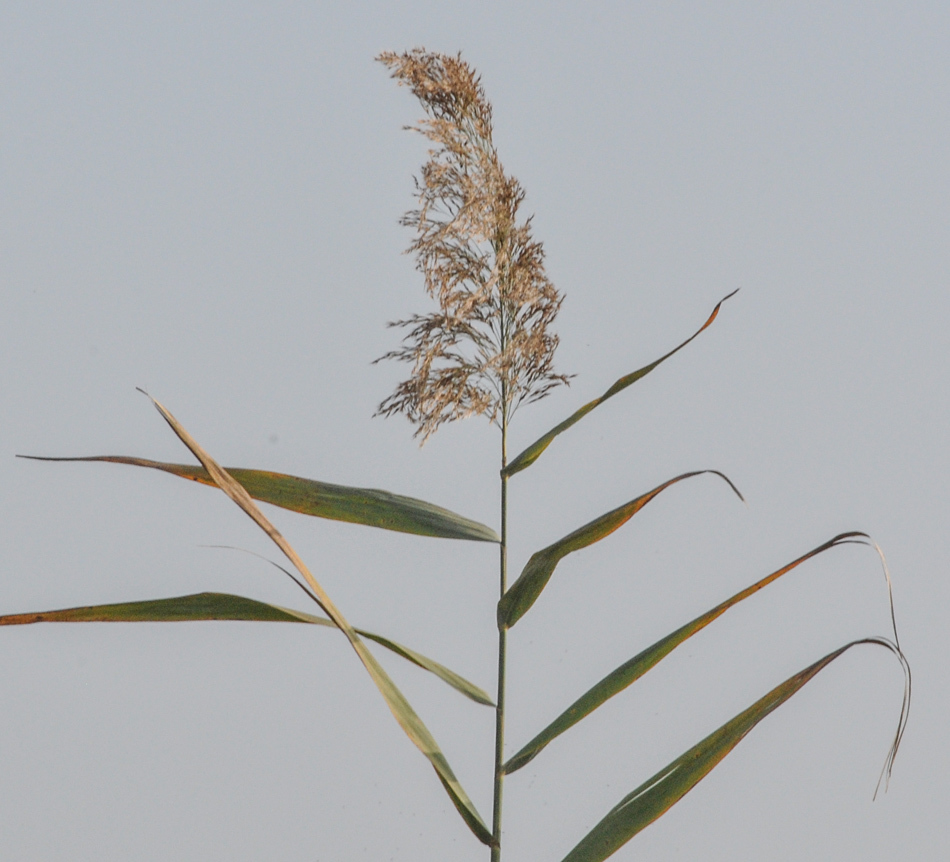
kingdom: Plantae
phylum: Tracheophyta
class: Liliopsida
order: Poales
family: Poaceae
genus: Phragmites
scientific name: Phragmites australis
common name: Common reed
